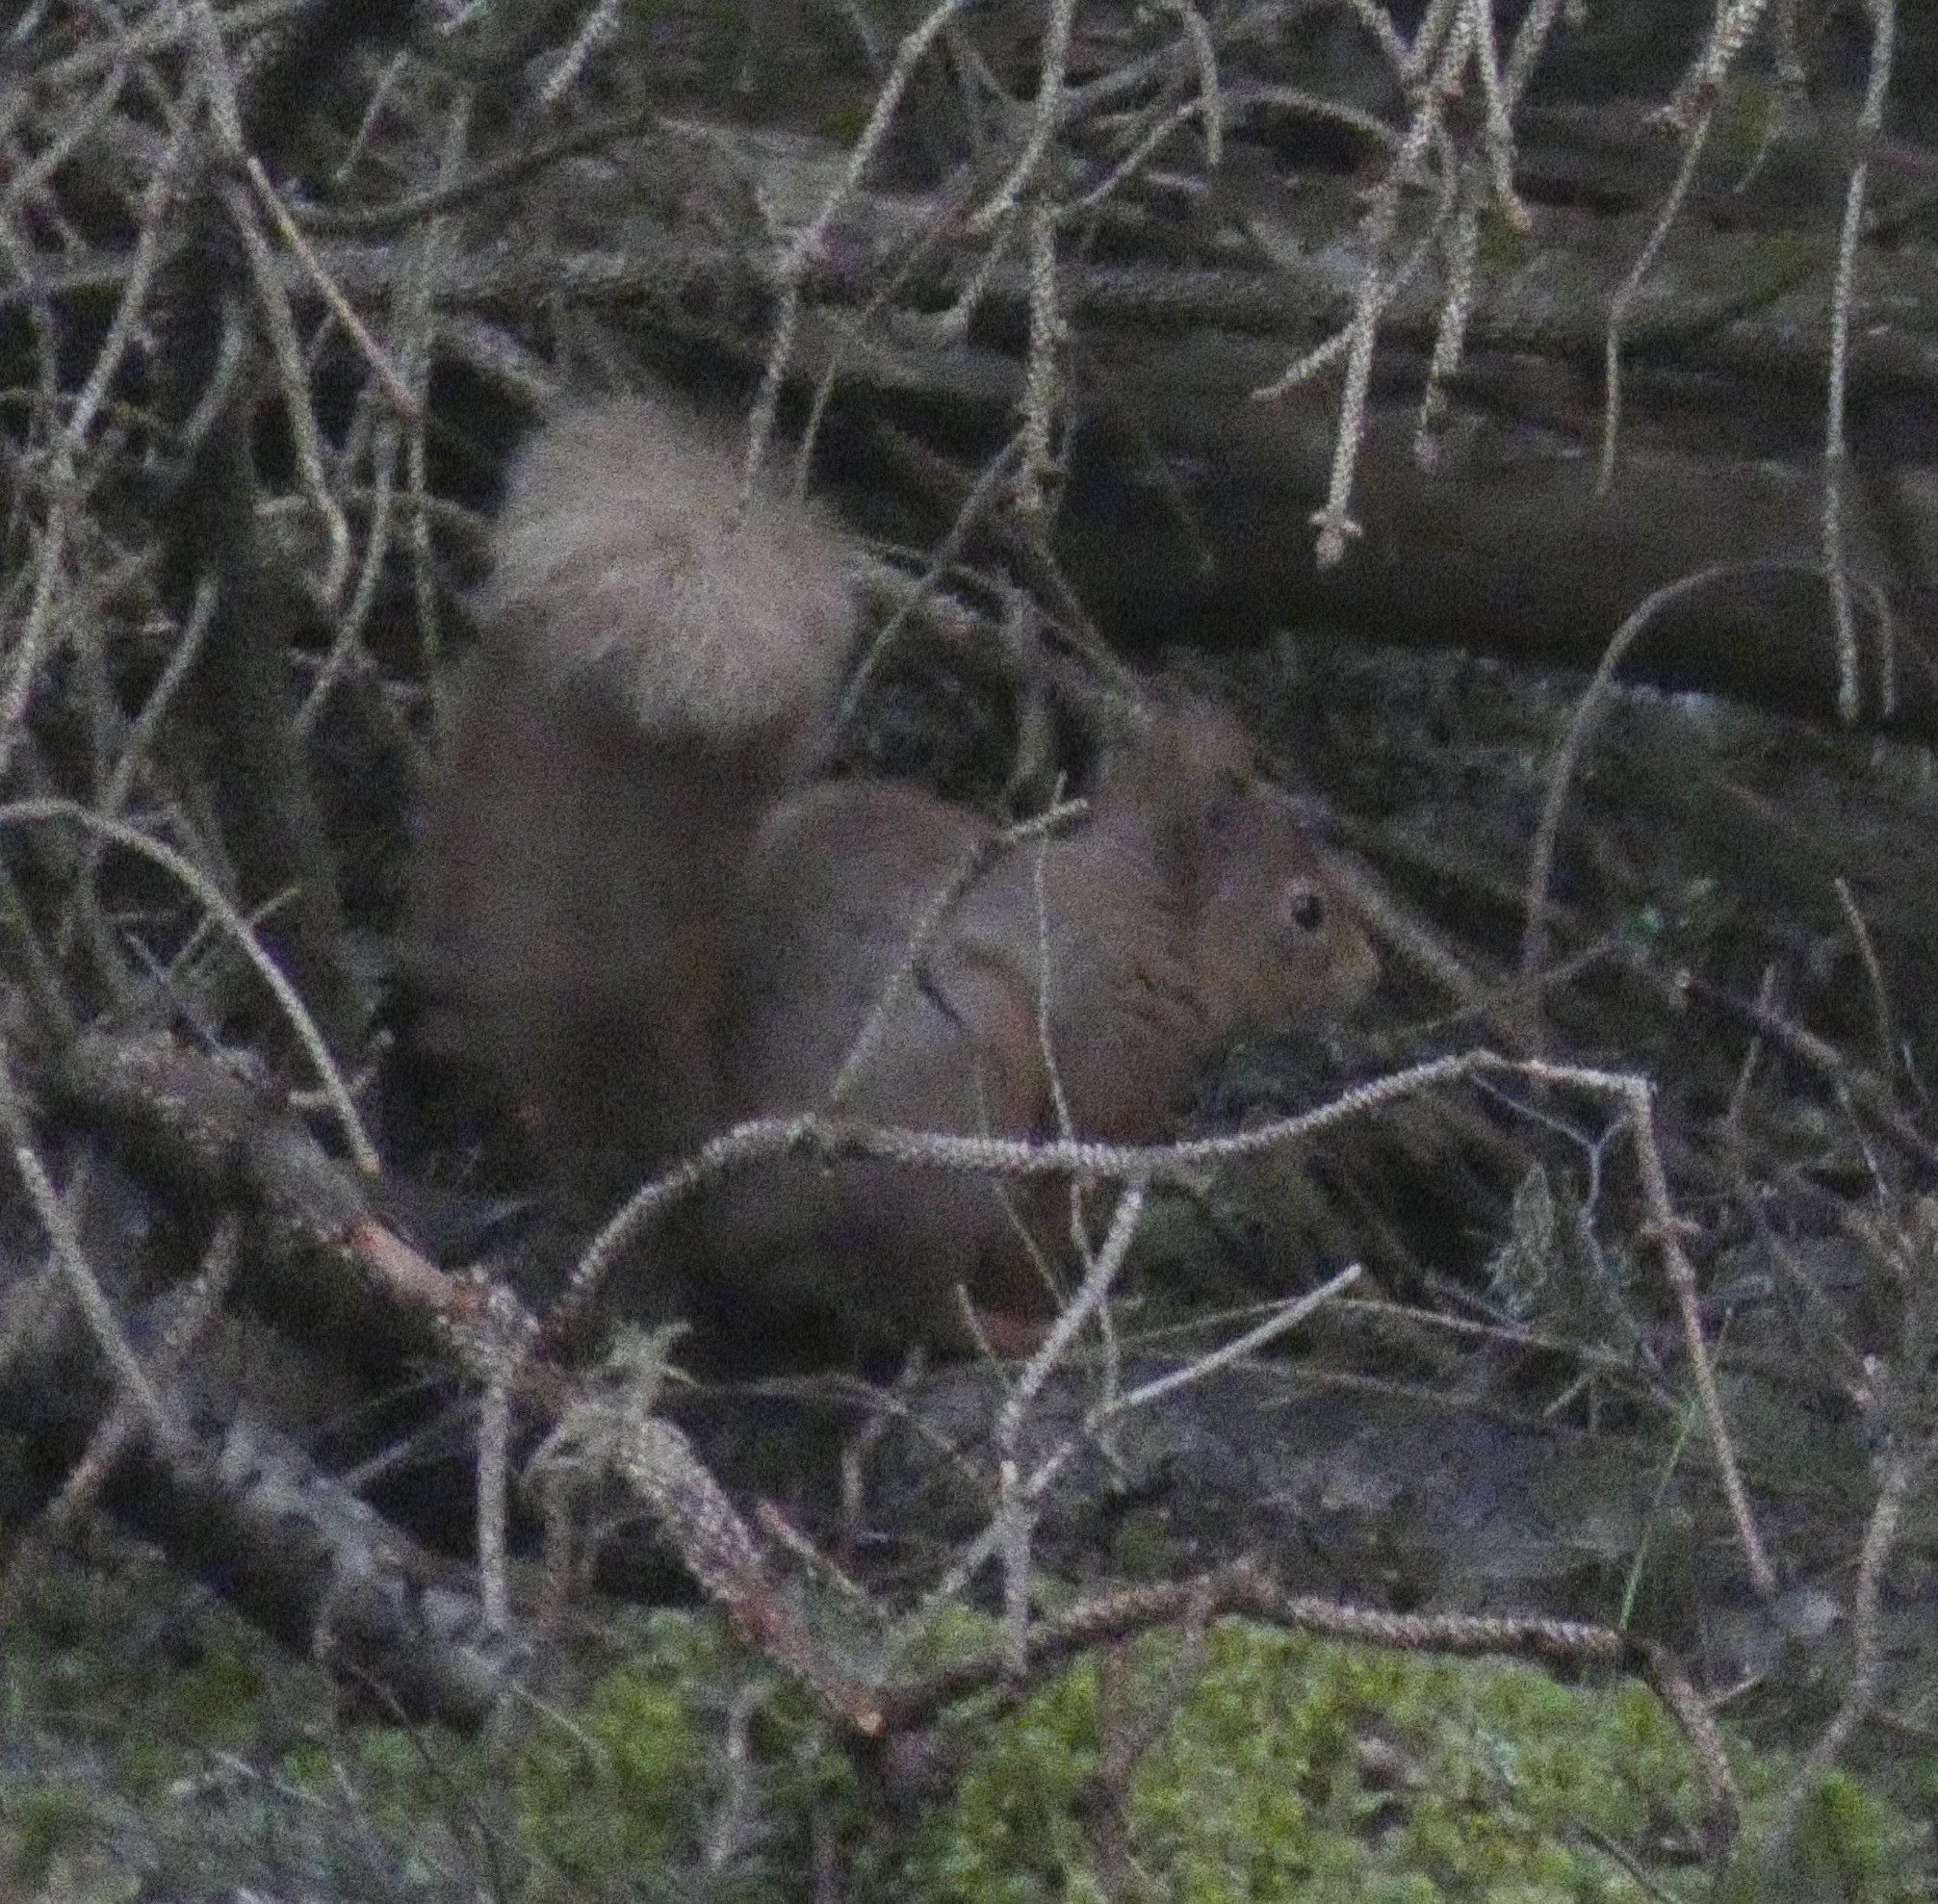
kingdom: Animalia
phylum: Chordata
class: Mammalia
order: Rodentia
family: Sciuridae
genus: Sciurus
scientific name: Sciurus vulgaris
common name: Eurasian red squirrel
